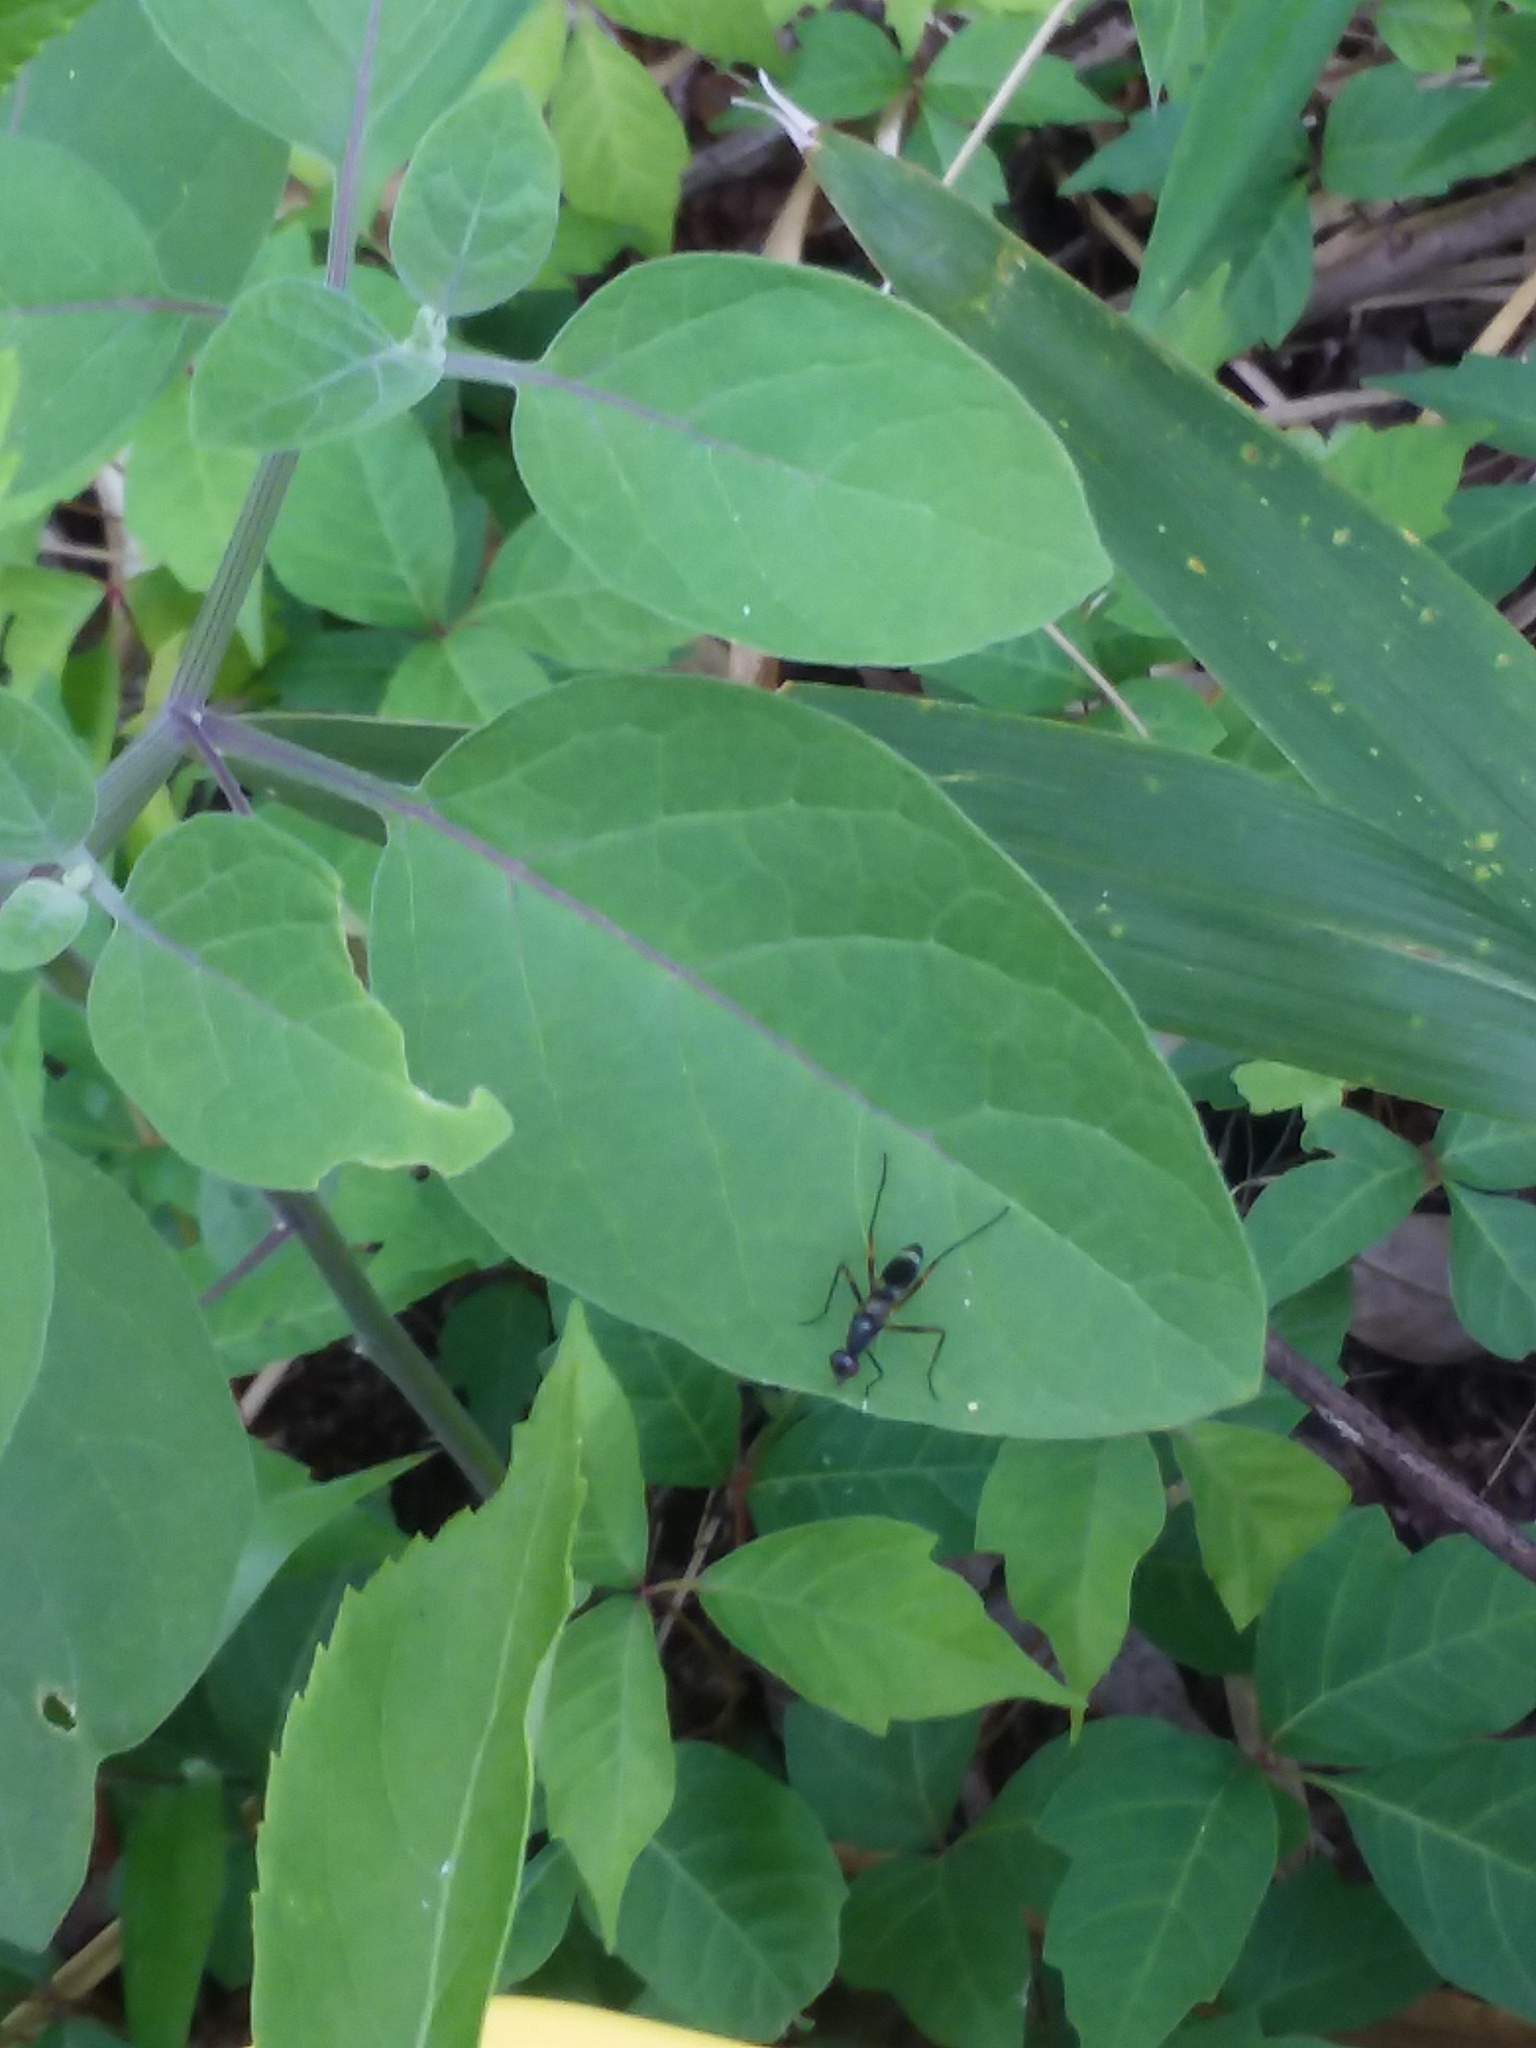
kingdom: Animalia
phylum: Arthropoda
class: Insecta
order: Diptera
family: Micropezidae
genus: Taeniaptera
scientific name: Taeniaptera trivittata
